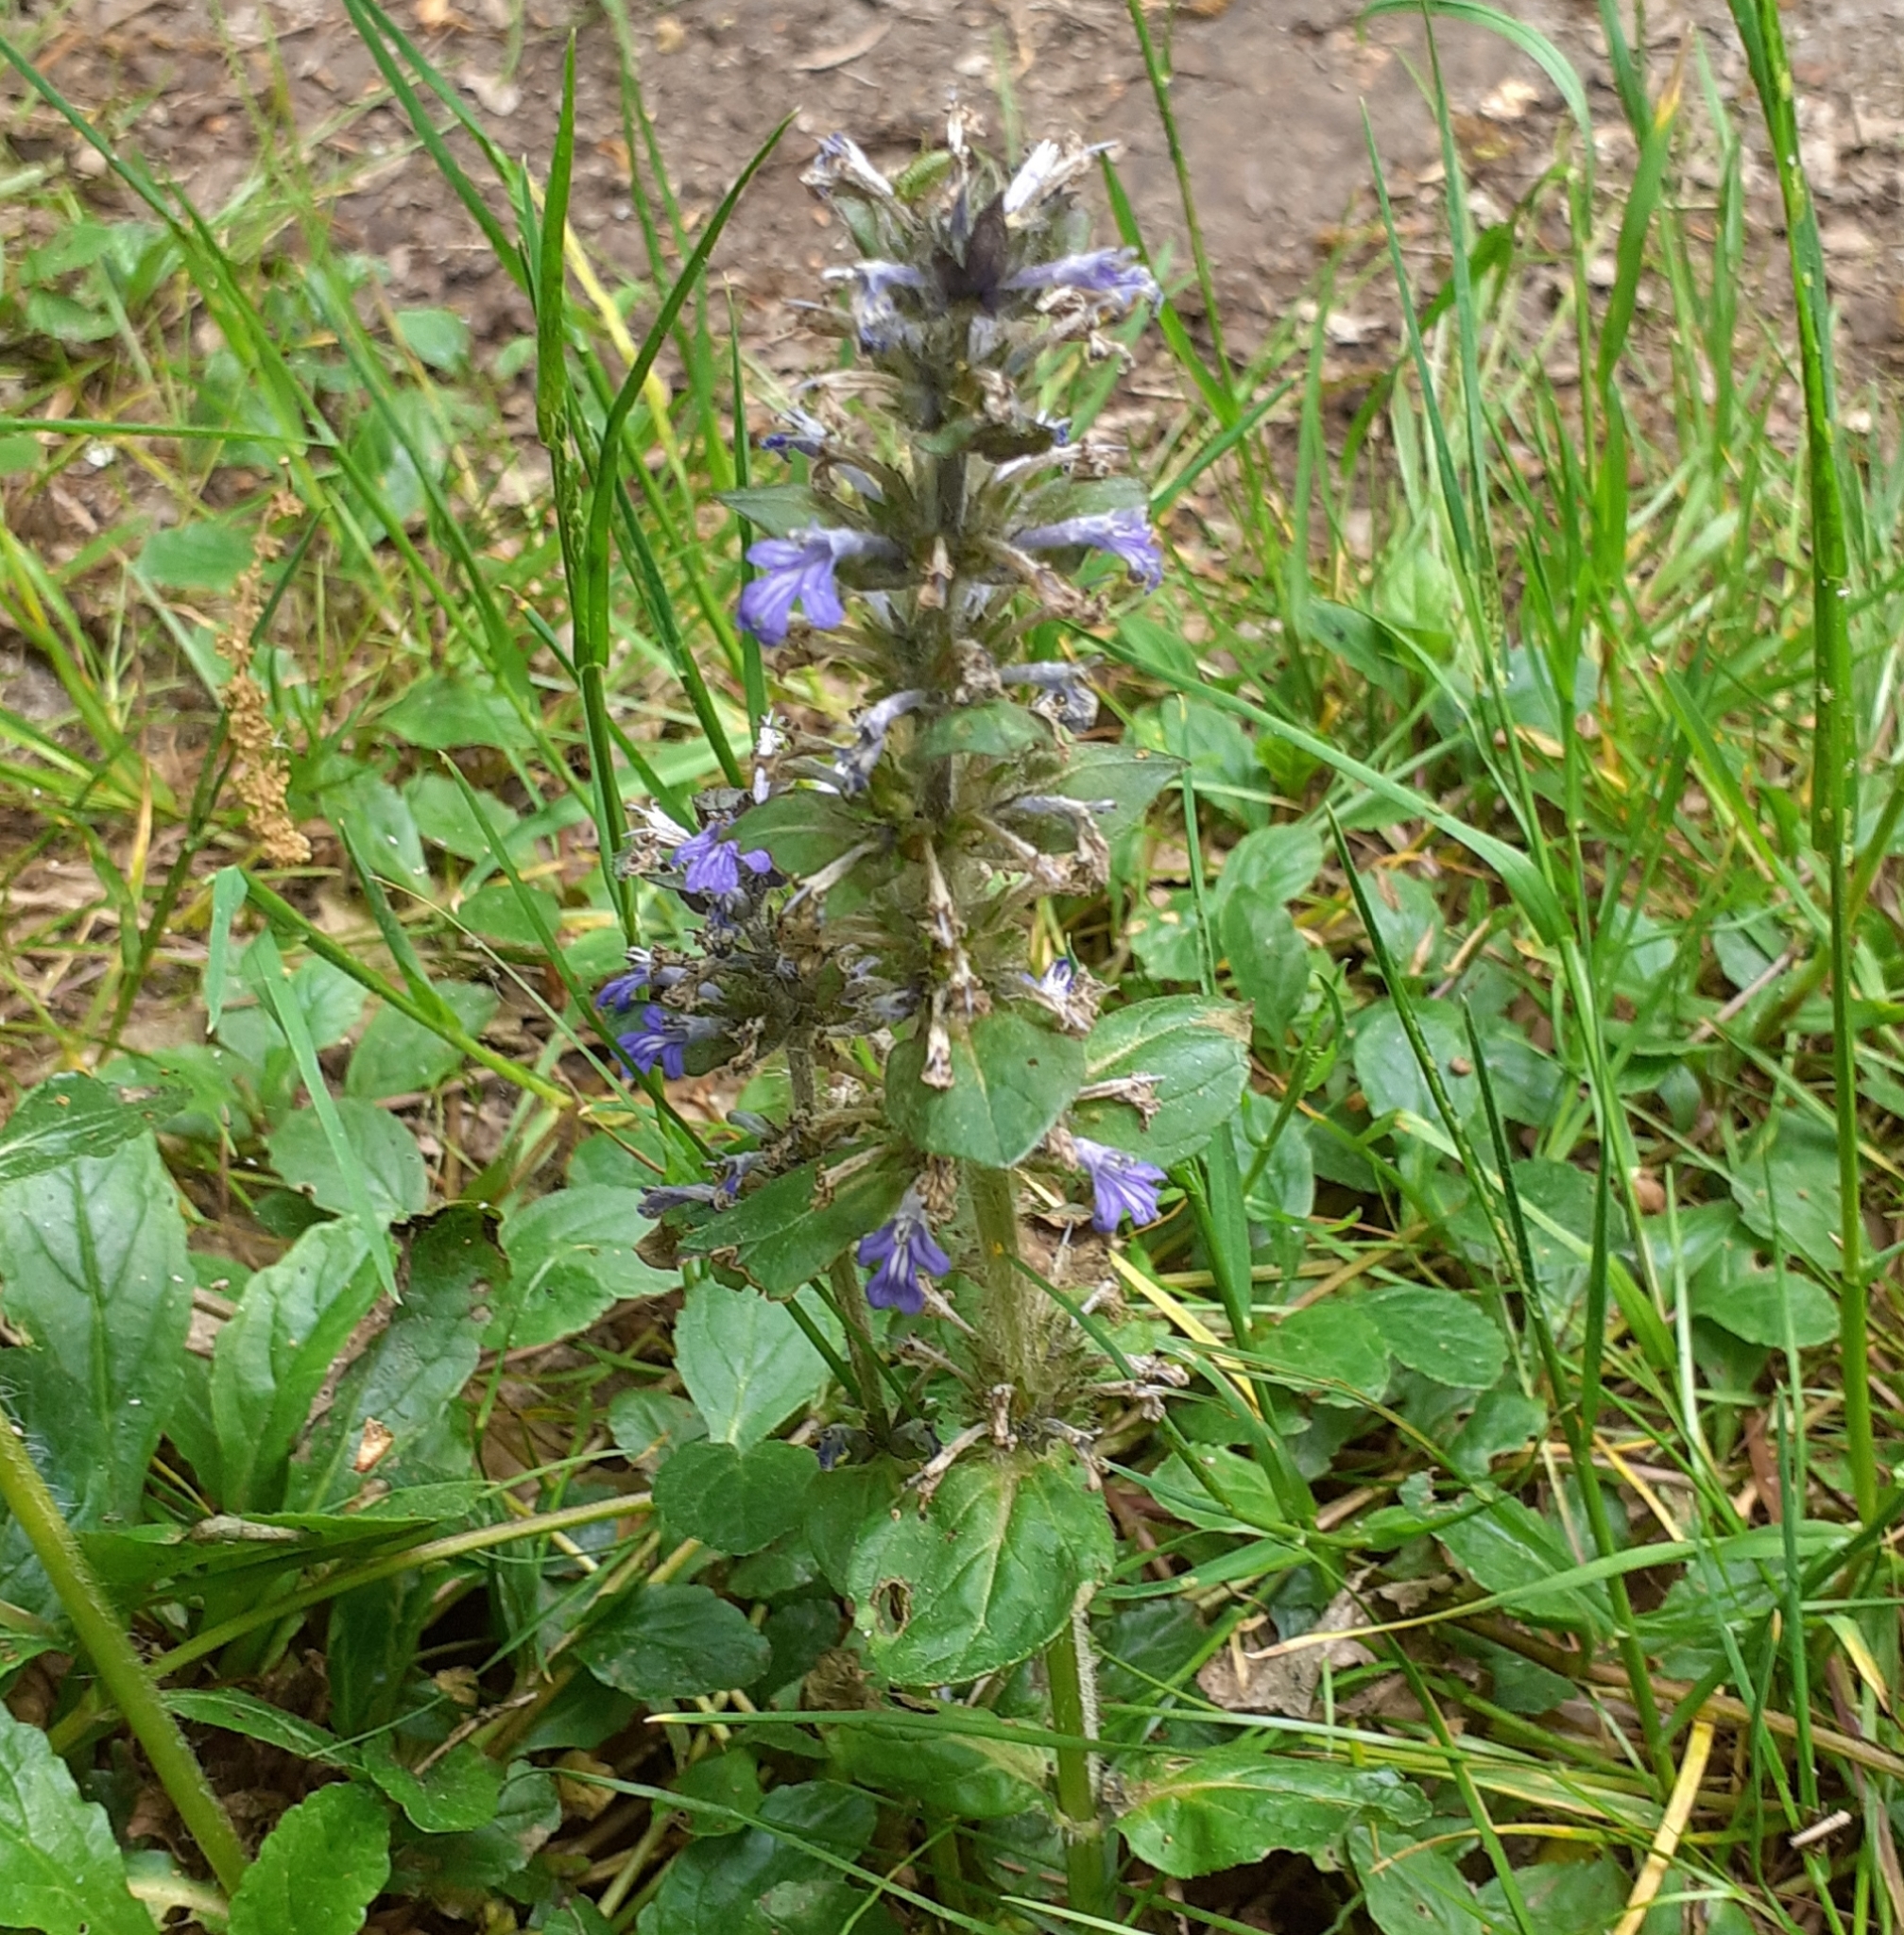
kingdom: Plantae
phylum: Tracheophyta
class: Magnoliopsida
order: Lamiales
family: Lamiaceae
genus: Ajuga
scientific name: Ajuga reptans
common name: Bugle
